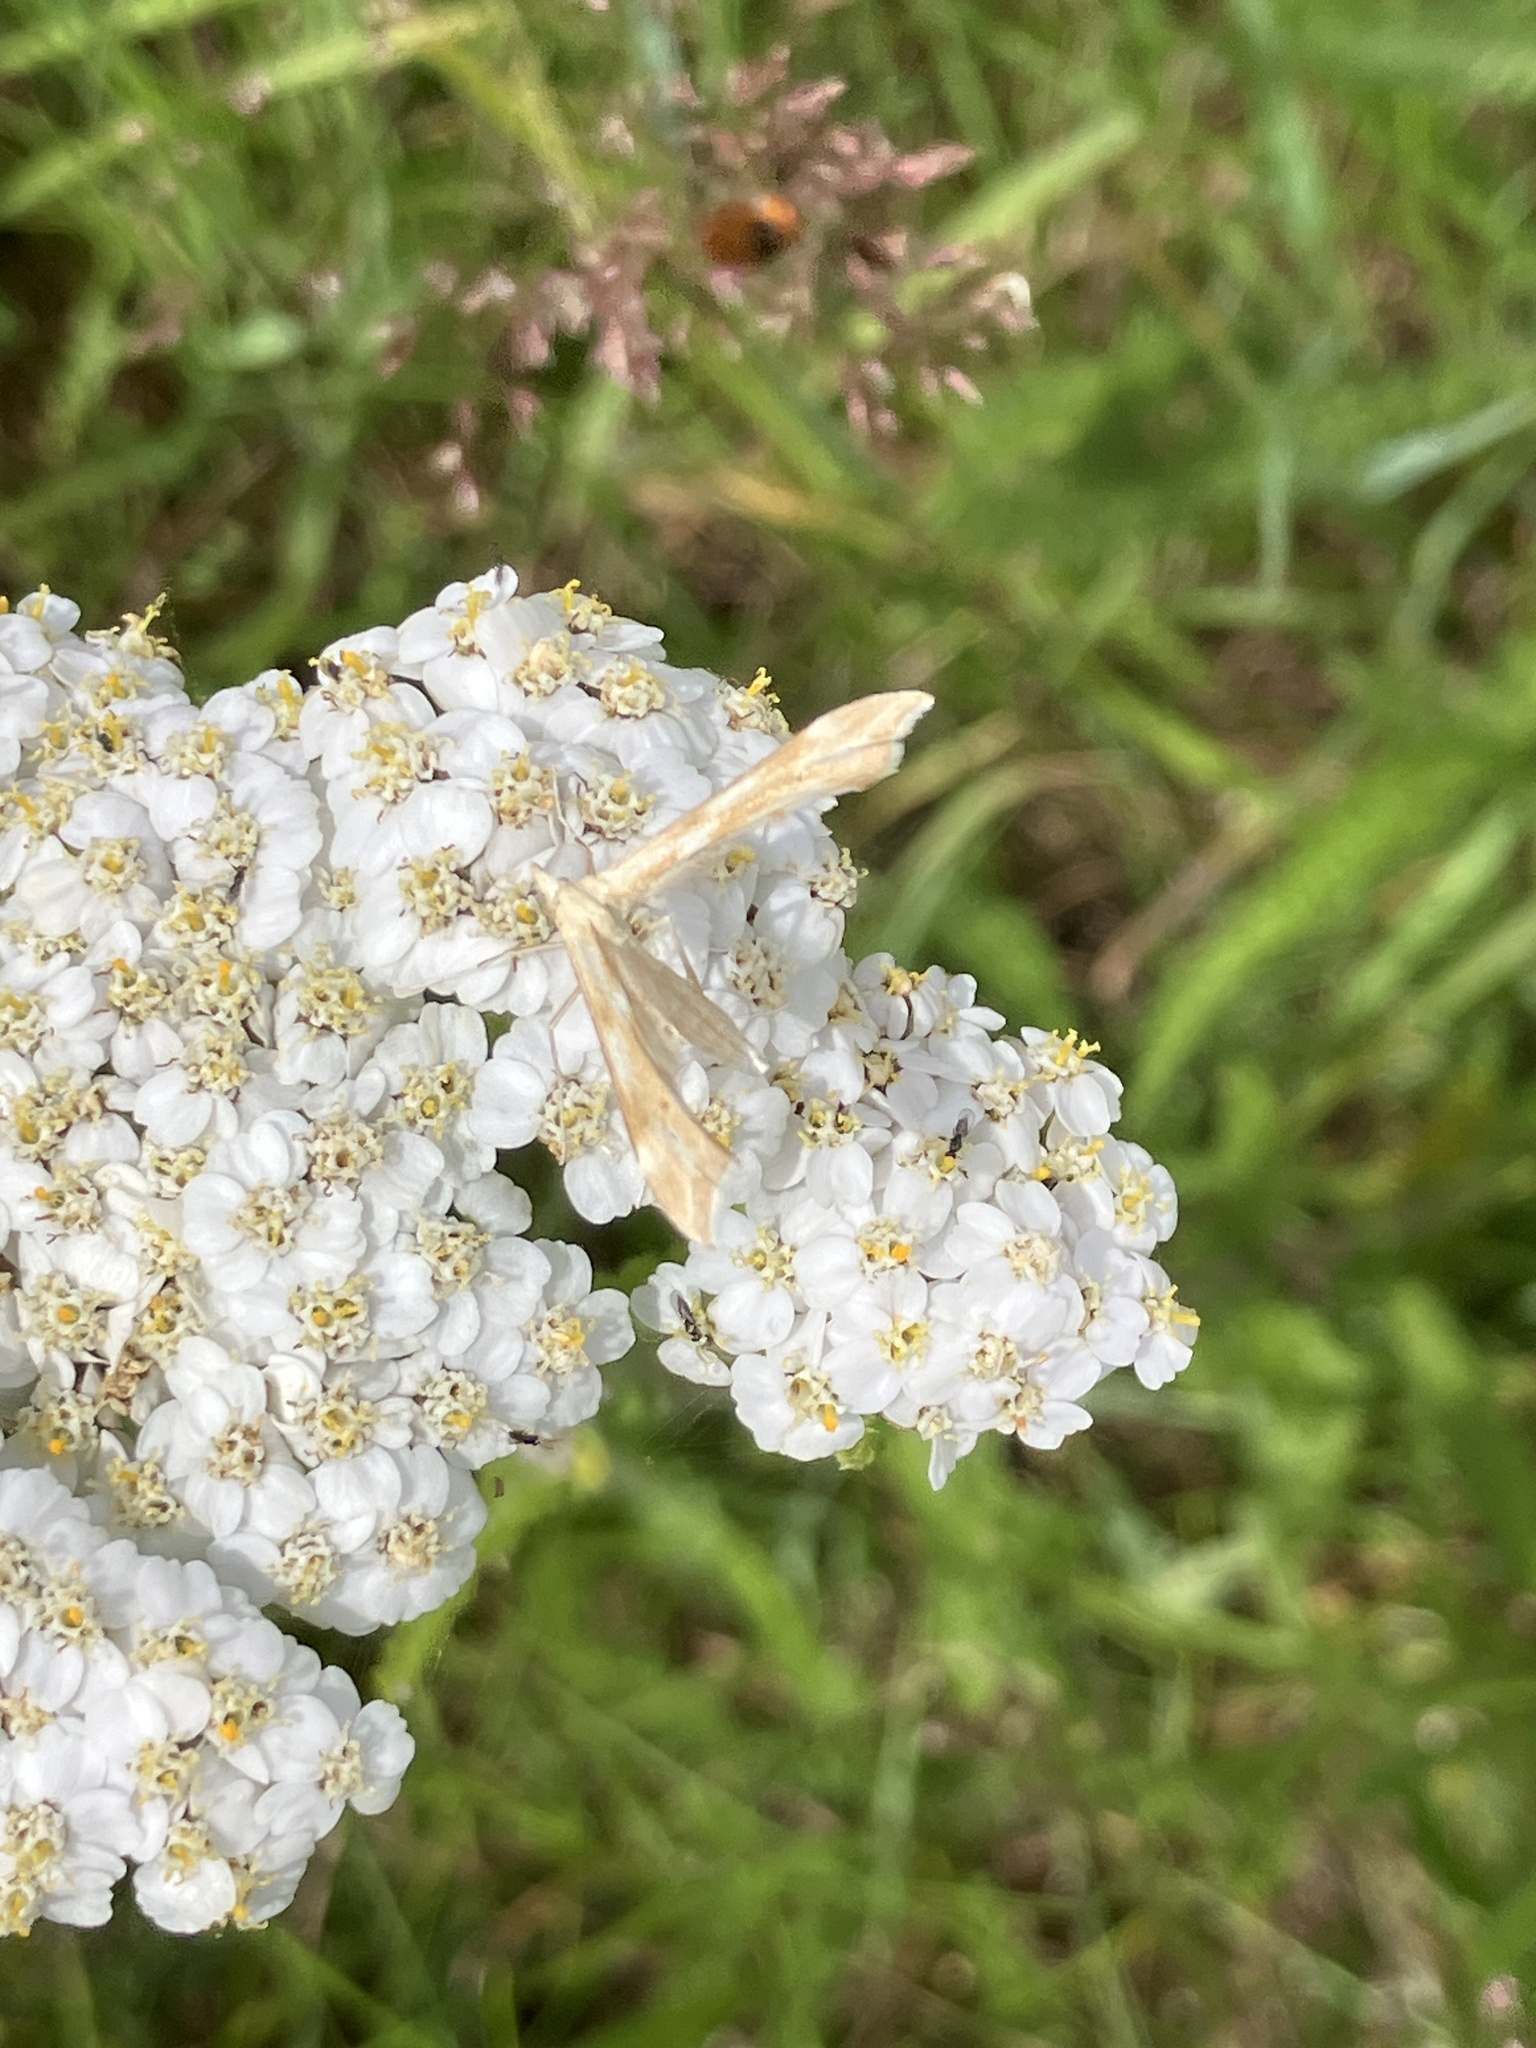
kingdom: Animalia
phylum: Arthropoda
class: Insecta
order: Lepidoptera
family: Pterophoridae
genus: Gillmeria
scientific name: Gillmeria pallidactyla
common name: Yarrow plume
